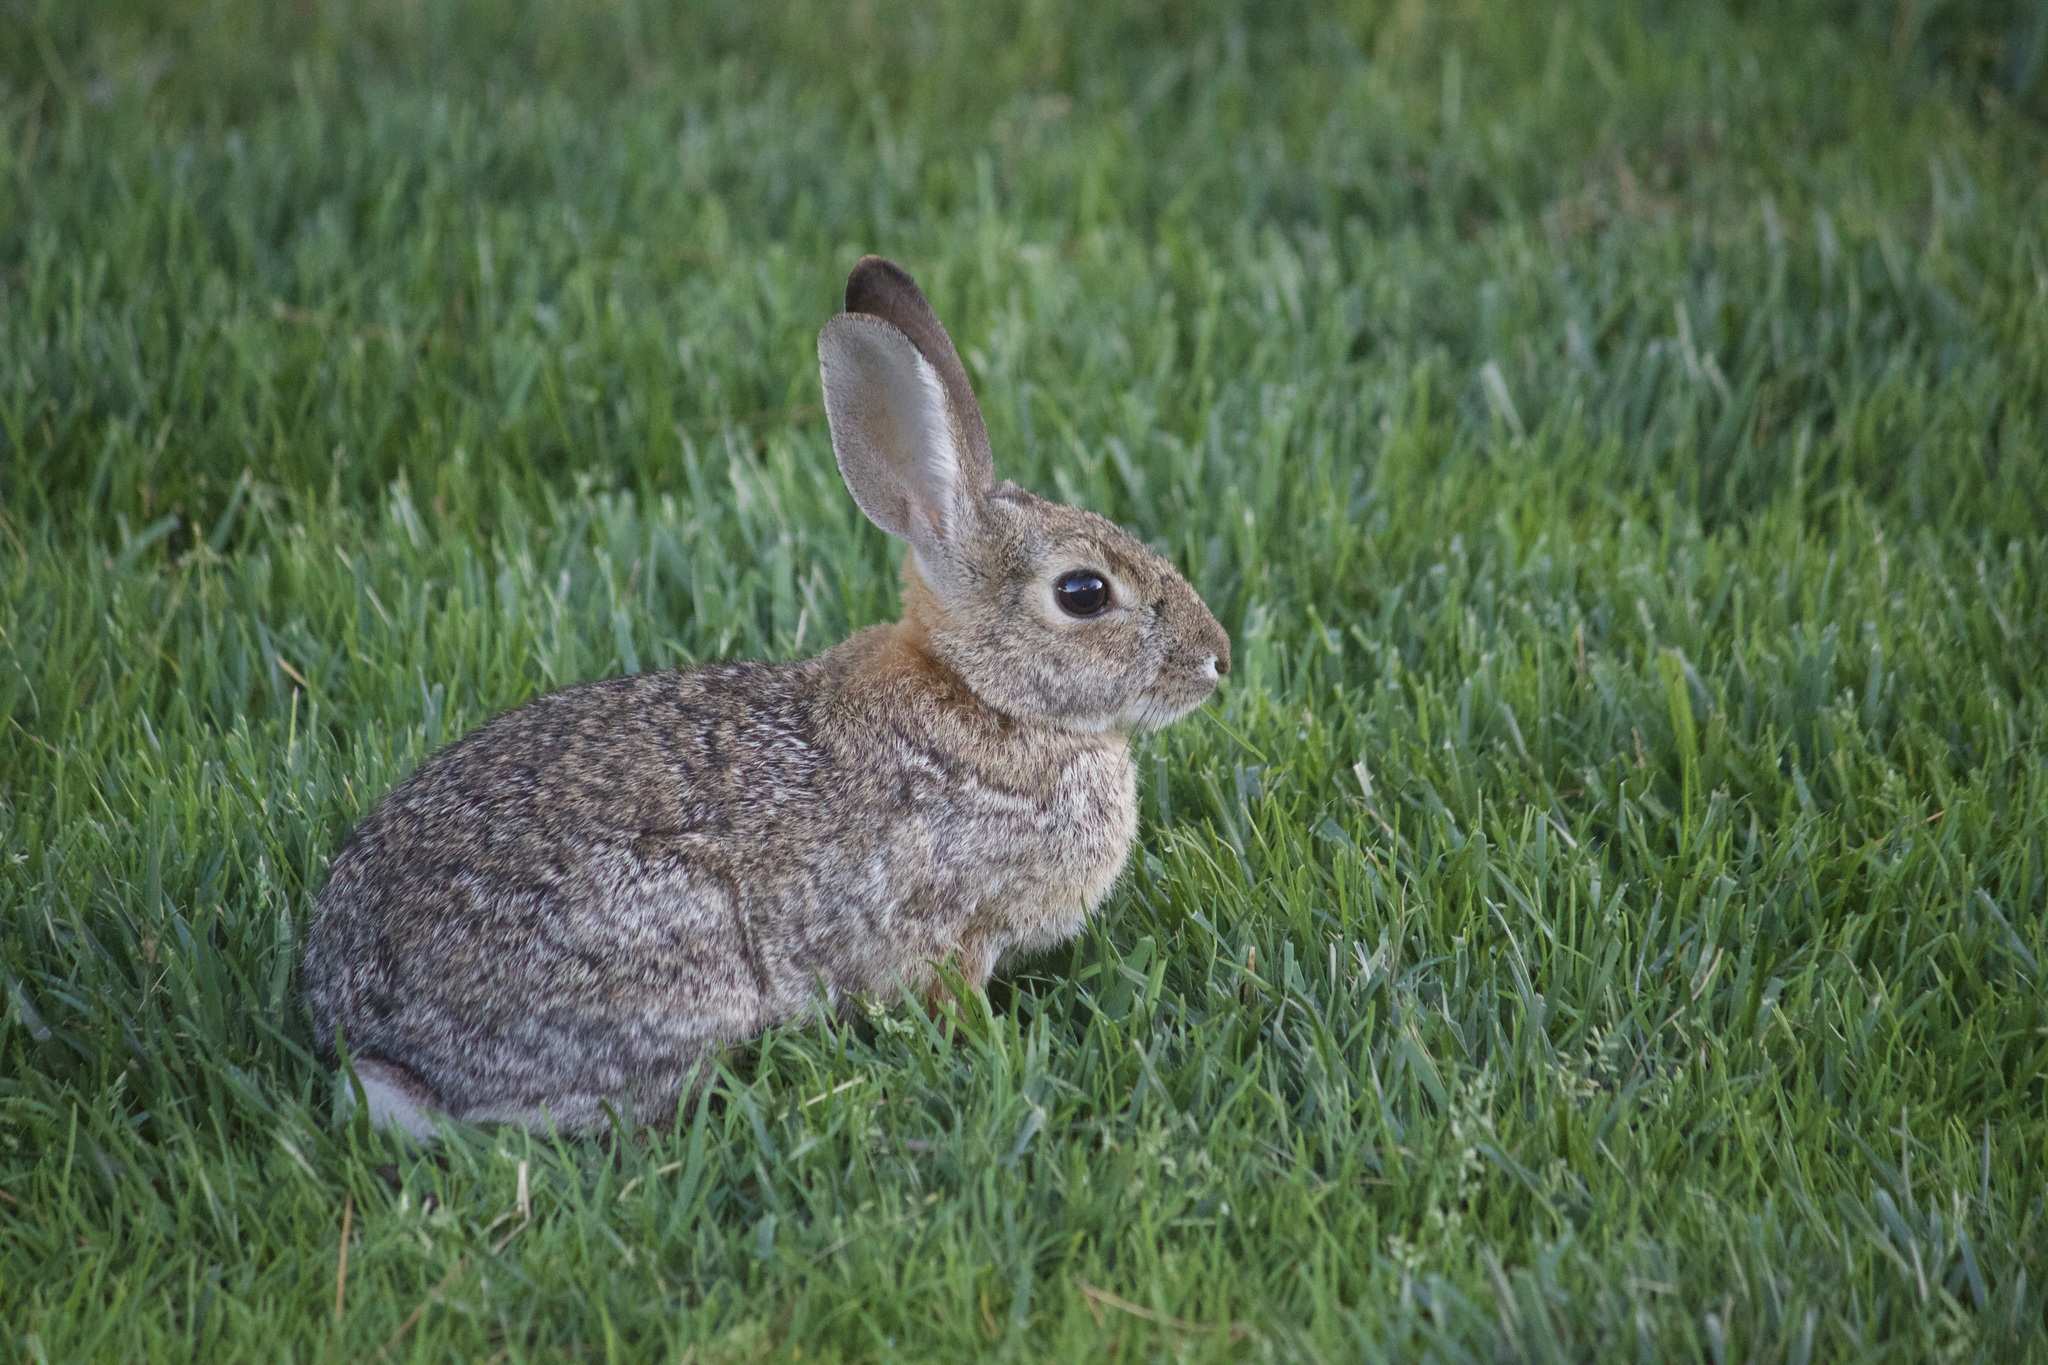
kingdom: Animalia
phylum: Chordata
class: Mammalia
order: Lagomorpha
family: Leporidae
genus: Sylvilagus
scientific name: Sylvilagus audubonii
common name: Desert cottontail
